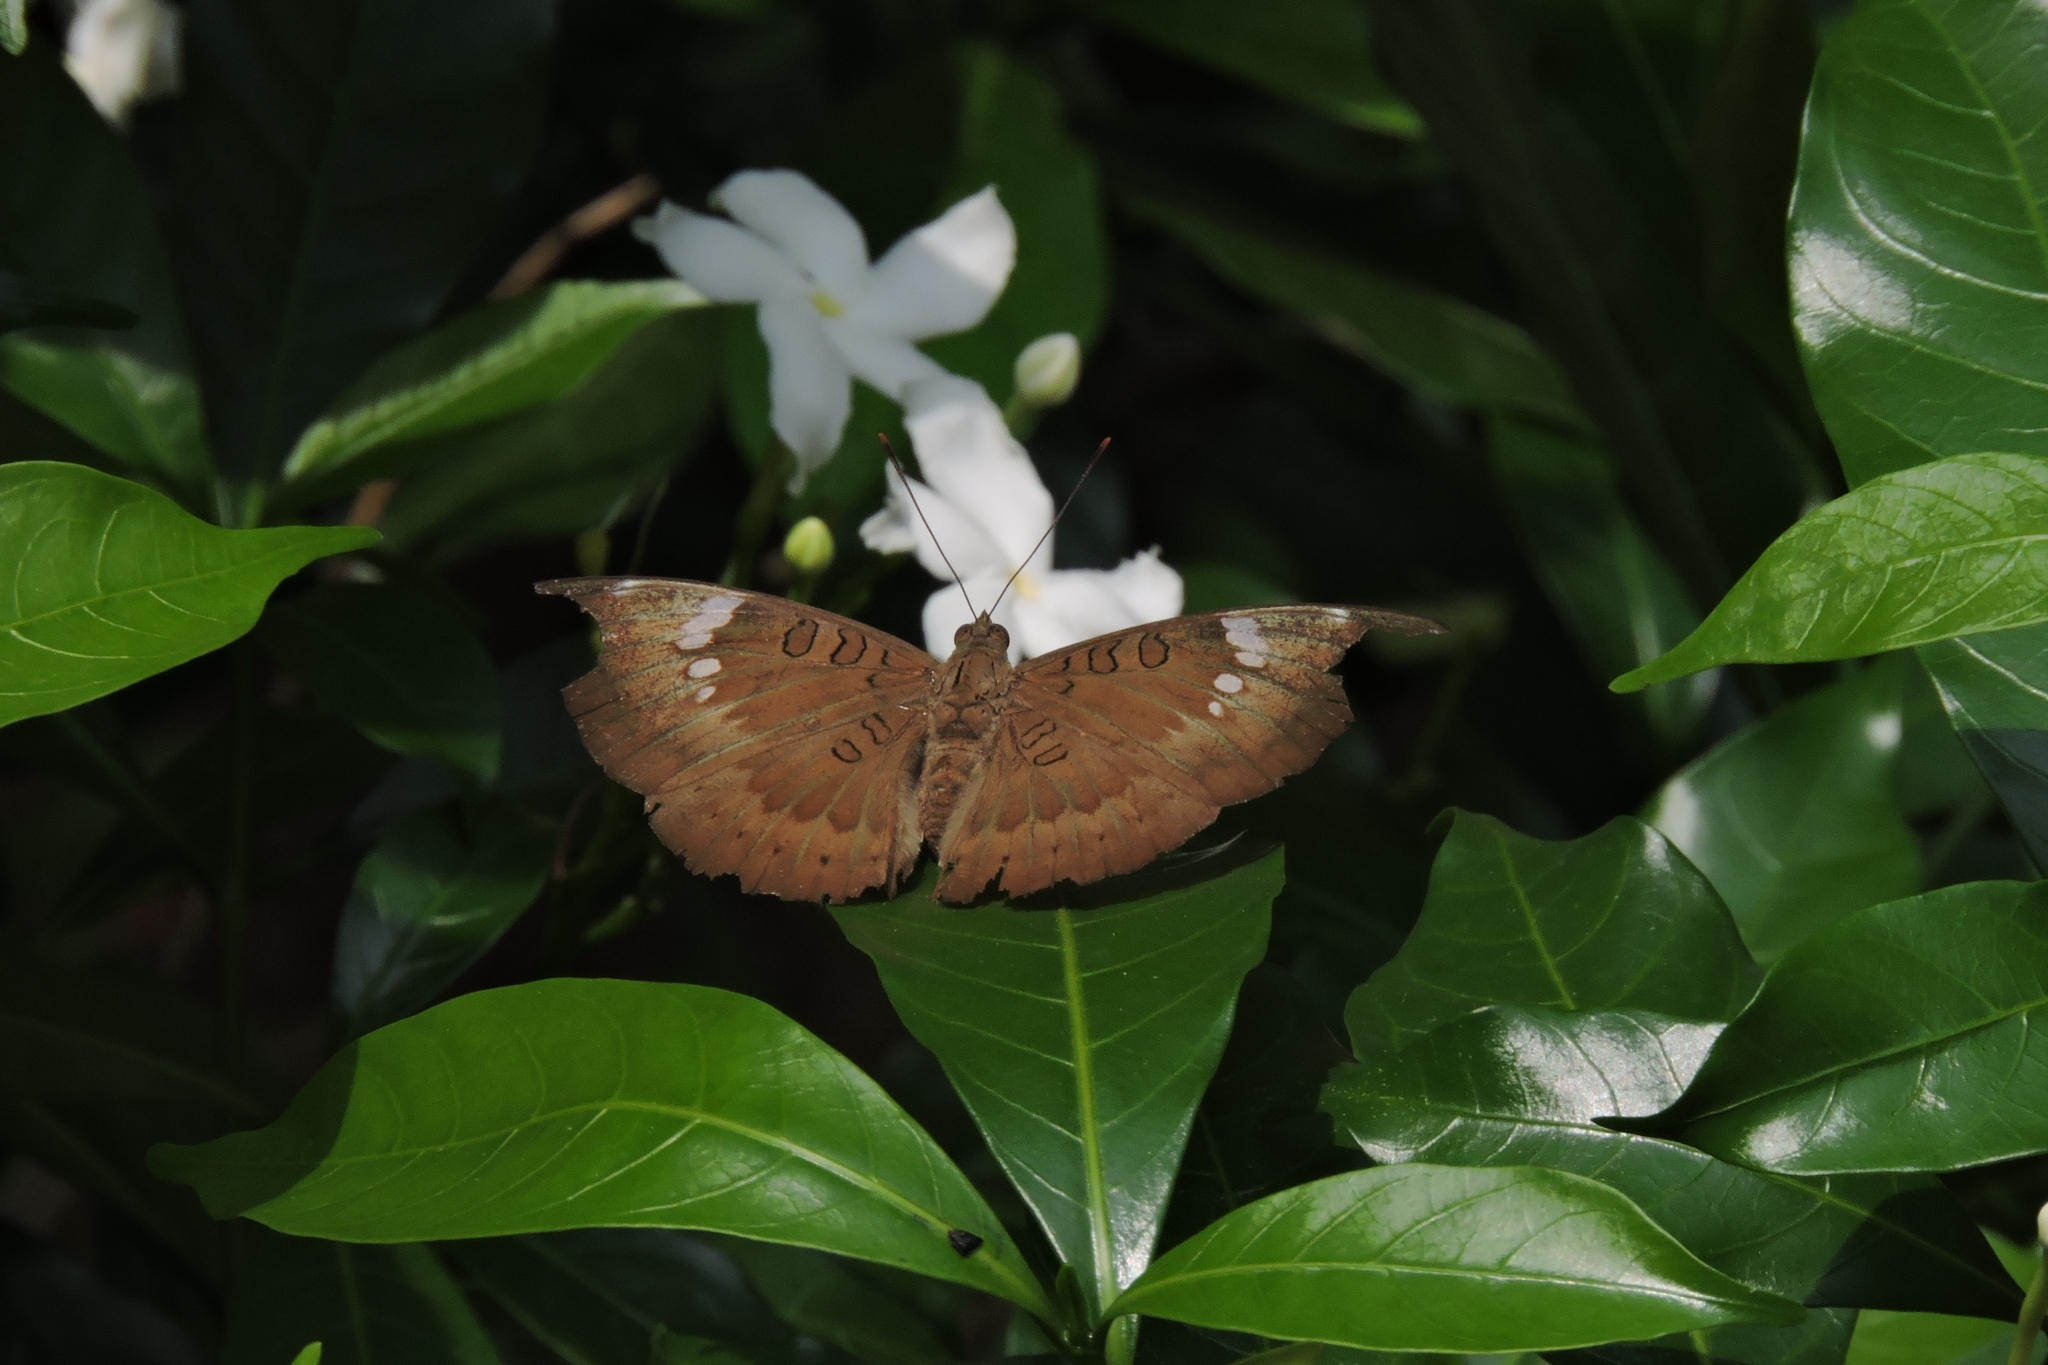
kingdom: Animalia
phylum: Arthropoda
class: Insecta
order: Lepidoptera
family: Nymphalidae
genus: Euthalia
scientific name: Euthalia aconthea
